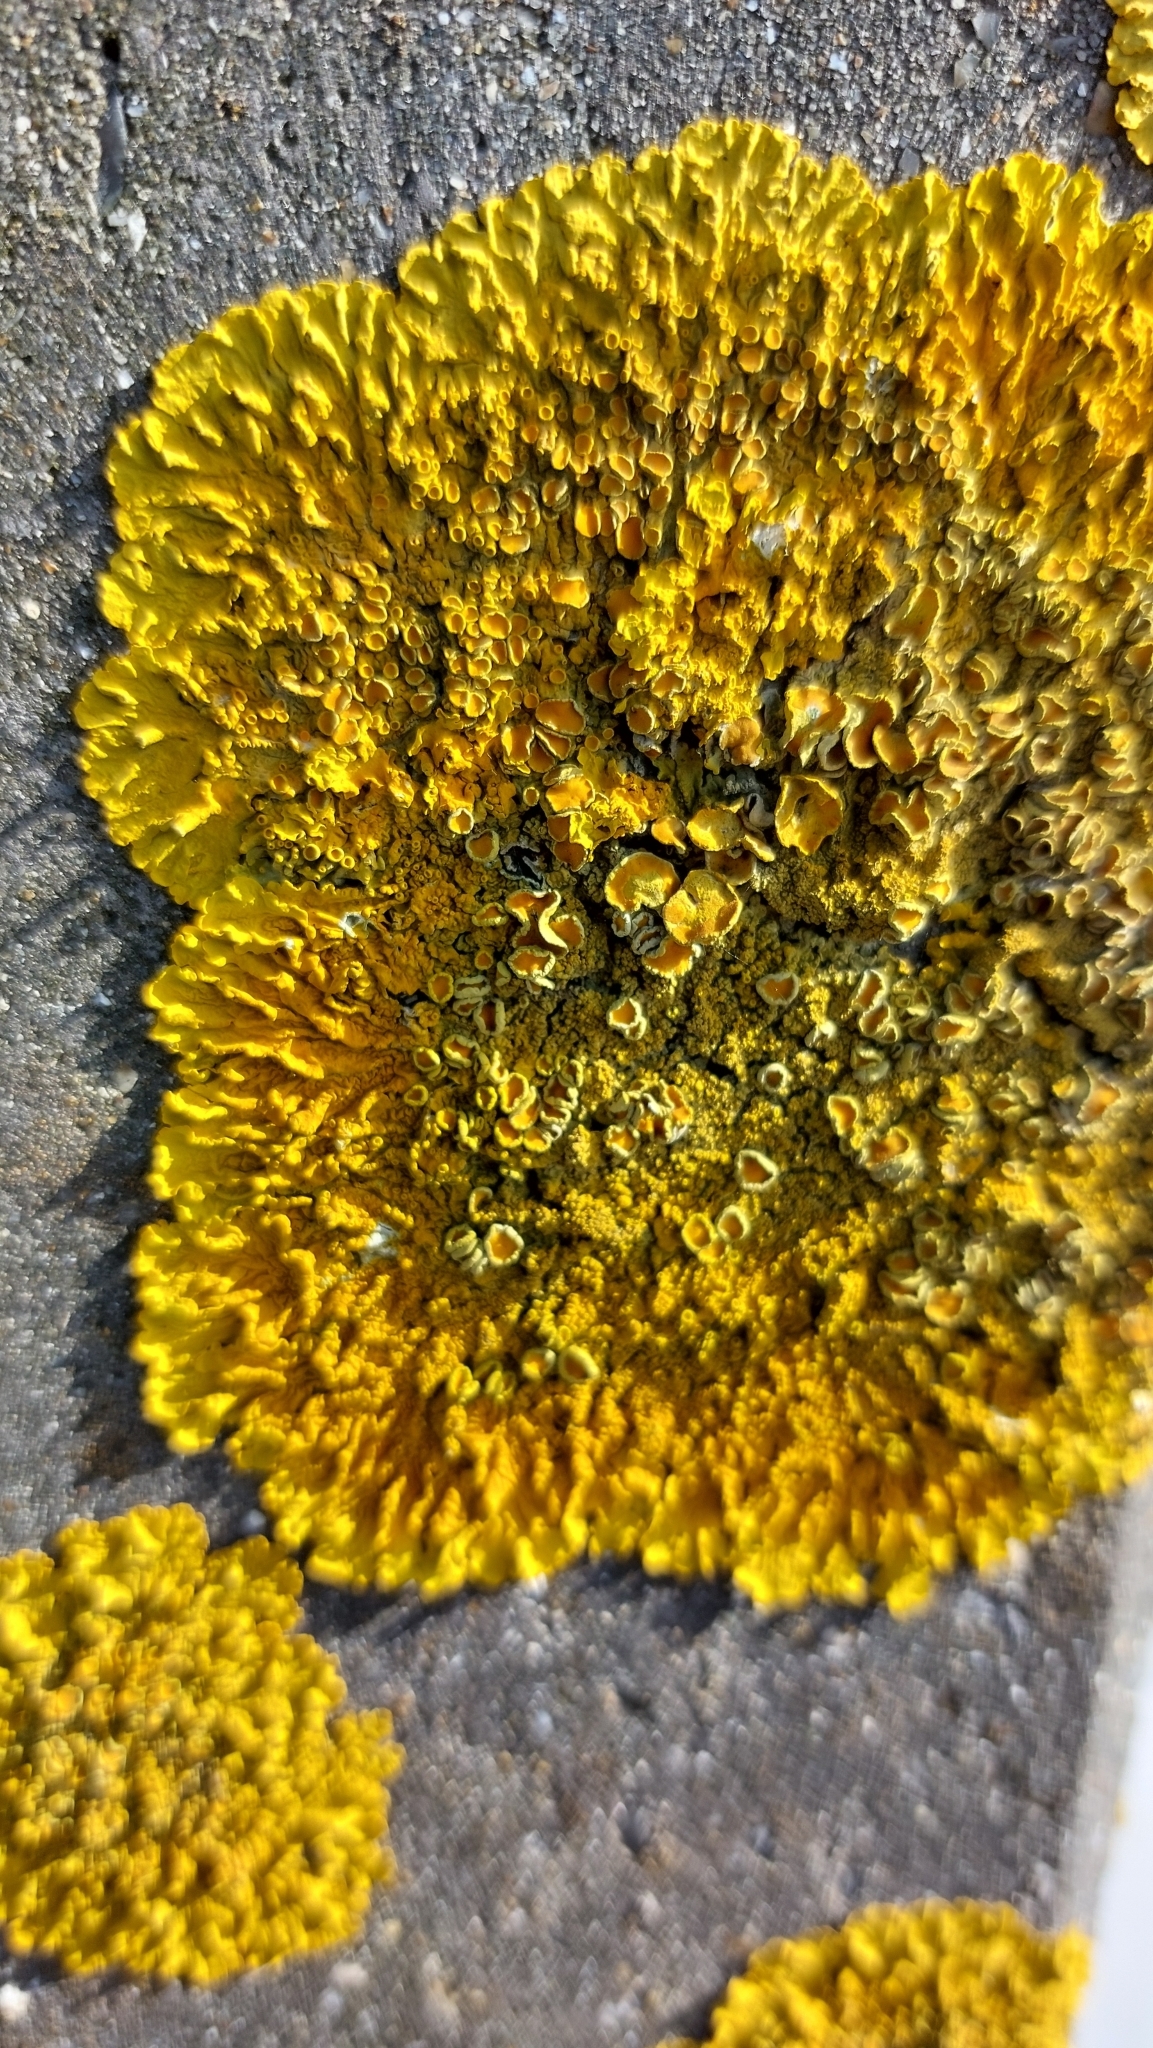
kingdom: Fungi
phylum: Ascomycota
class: Lecanoromycetes
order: Teloschistales
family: Teloschistaceae
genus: Xanthoria
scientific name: Xanthoria calcicola
